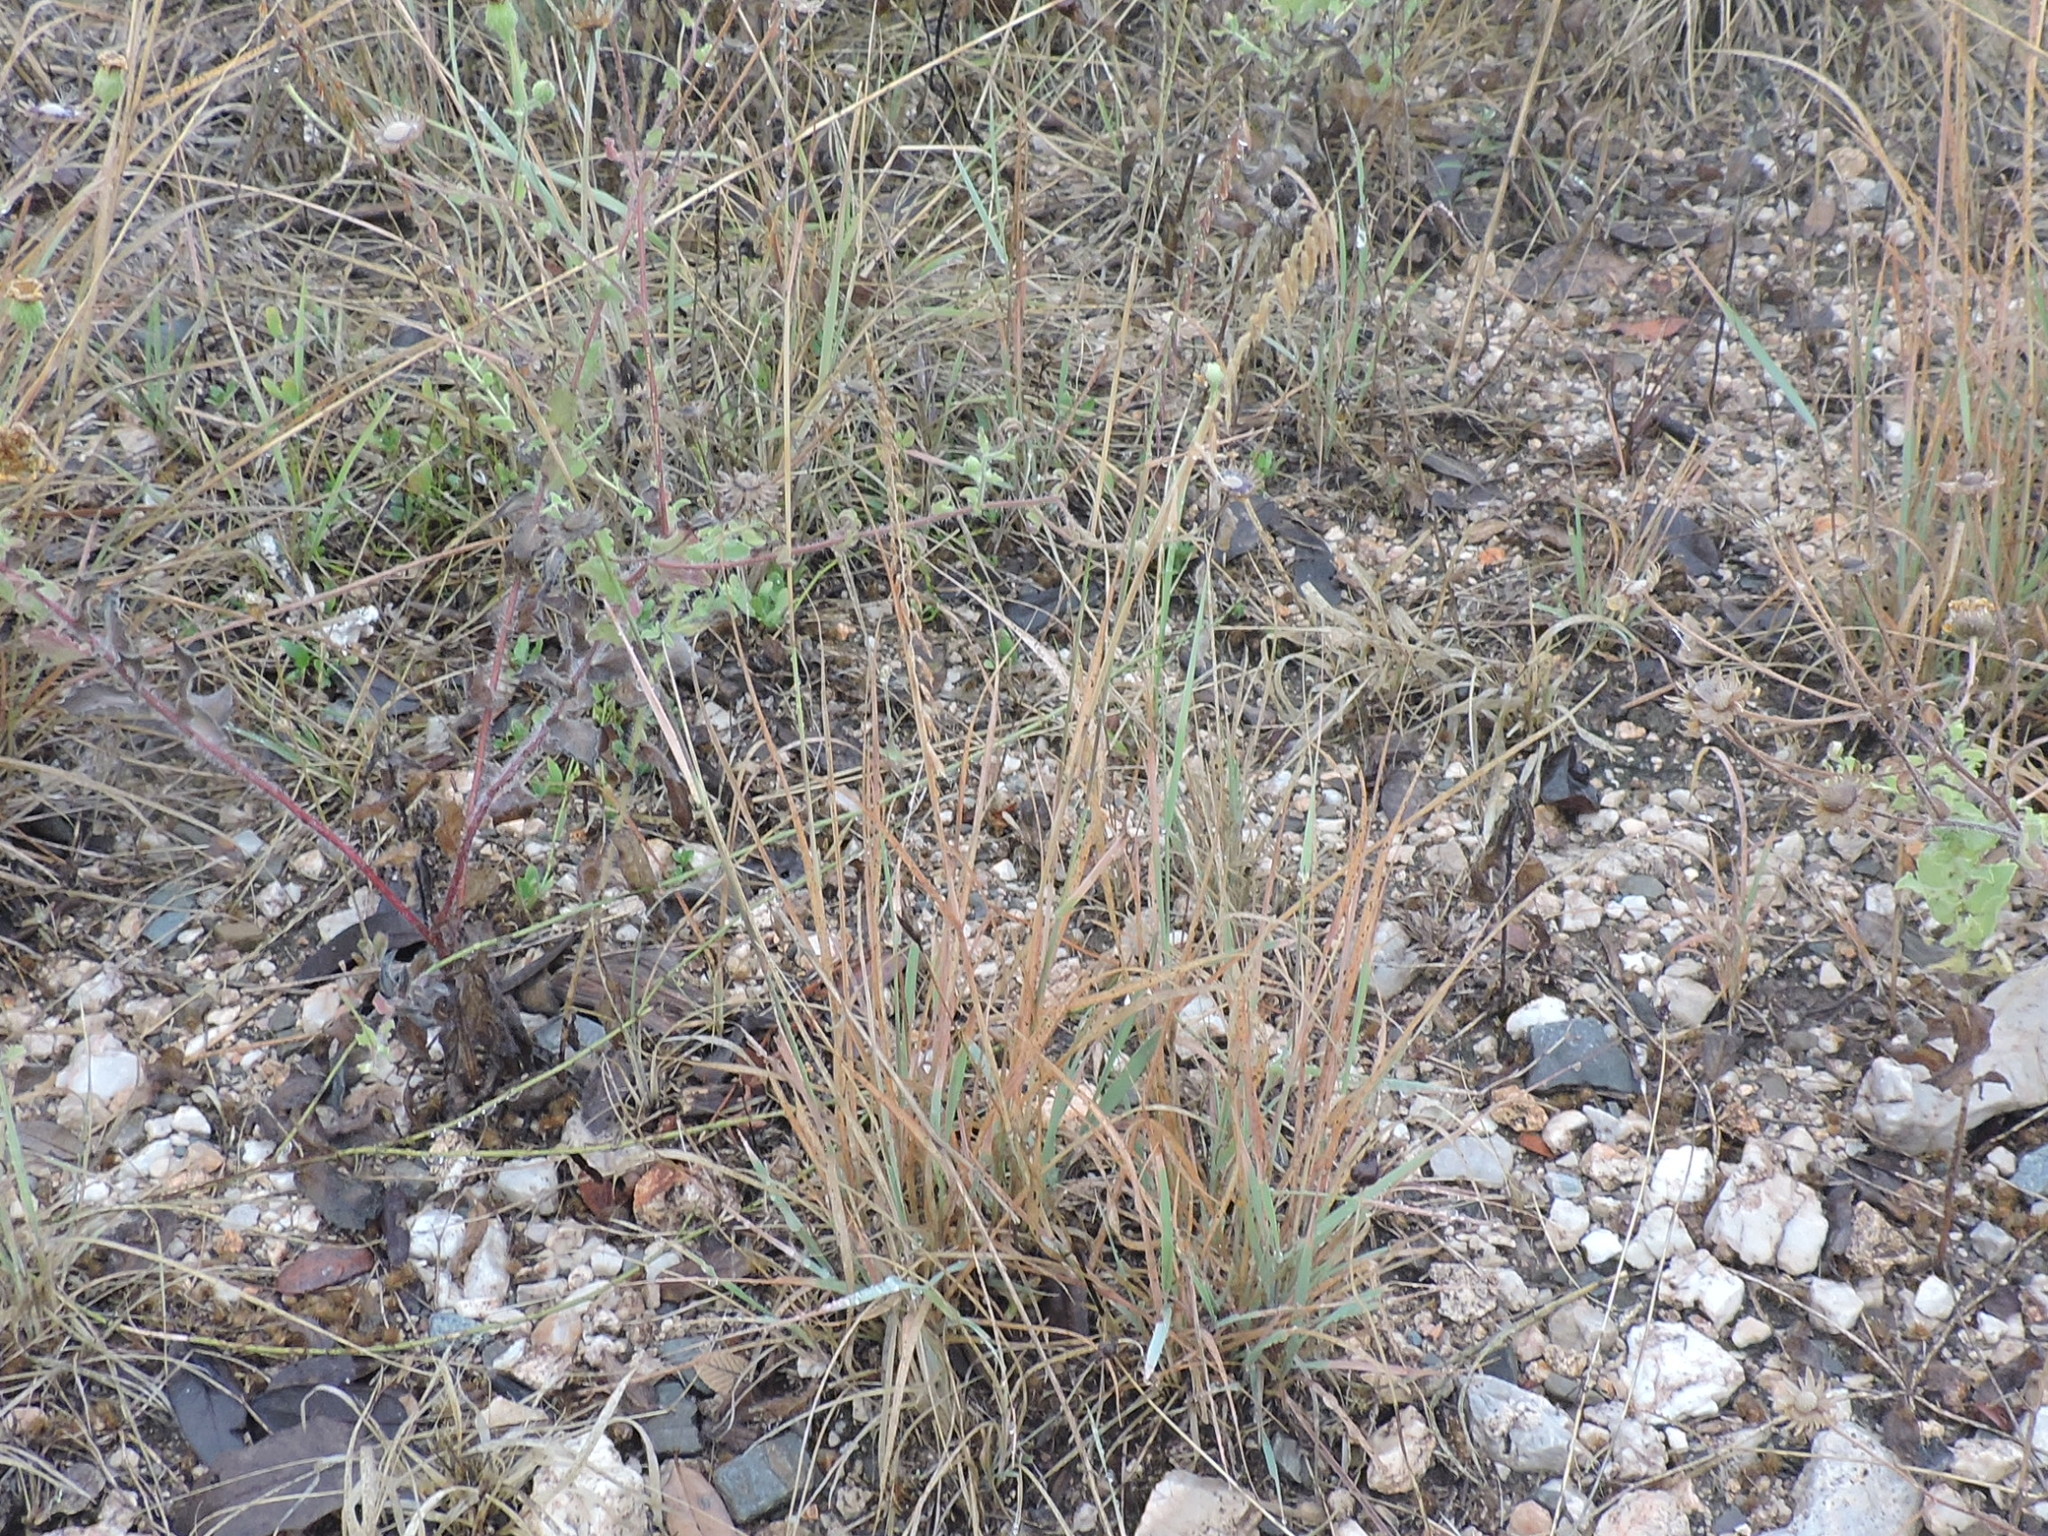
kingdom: Plantae
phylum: Tracheophyta
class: Liliopsida
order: Poales
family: Poaceae
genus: Bouteloua
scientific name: Bouteloua curtipendula
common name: Side-oats grama
